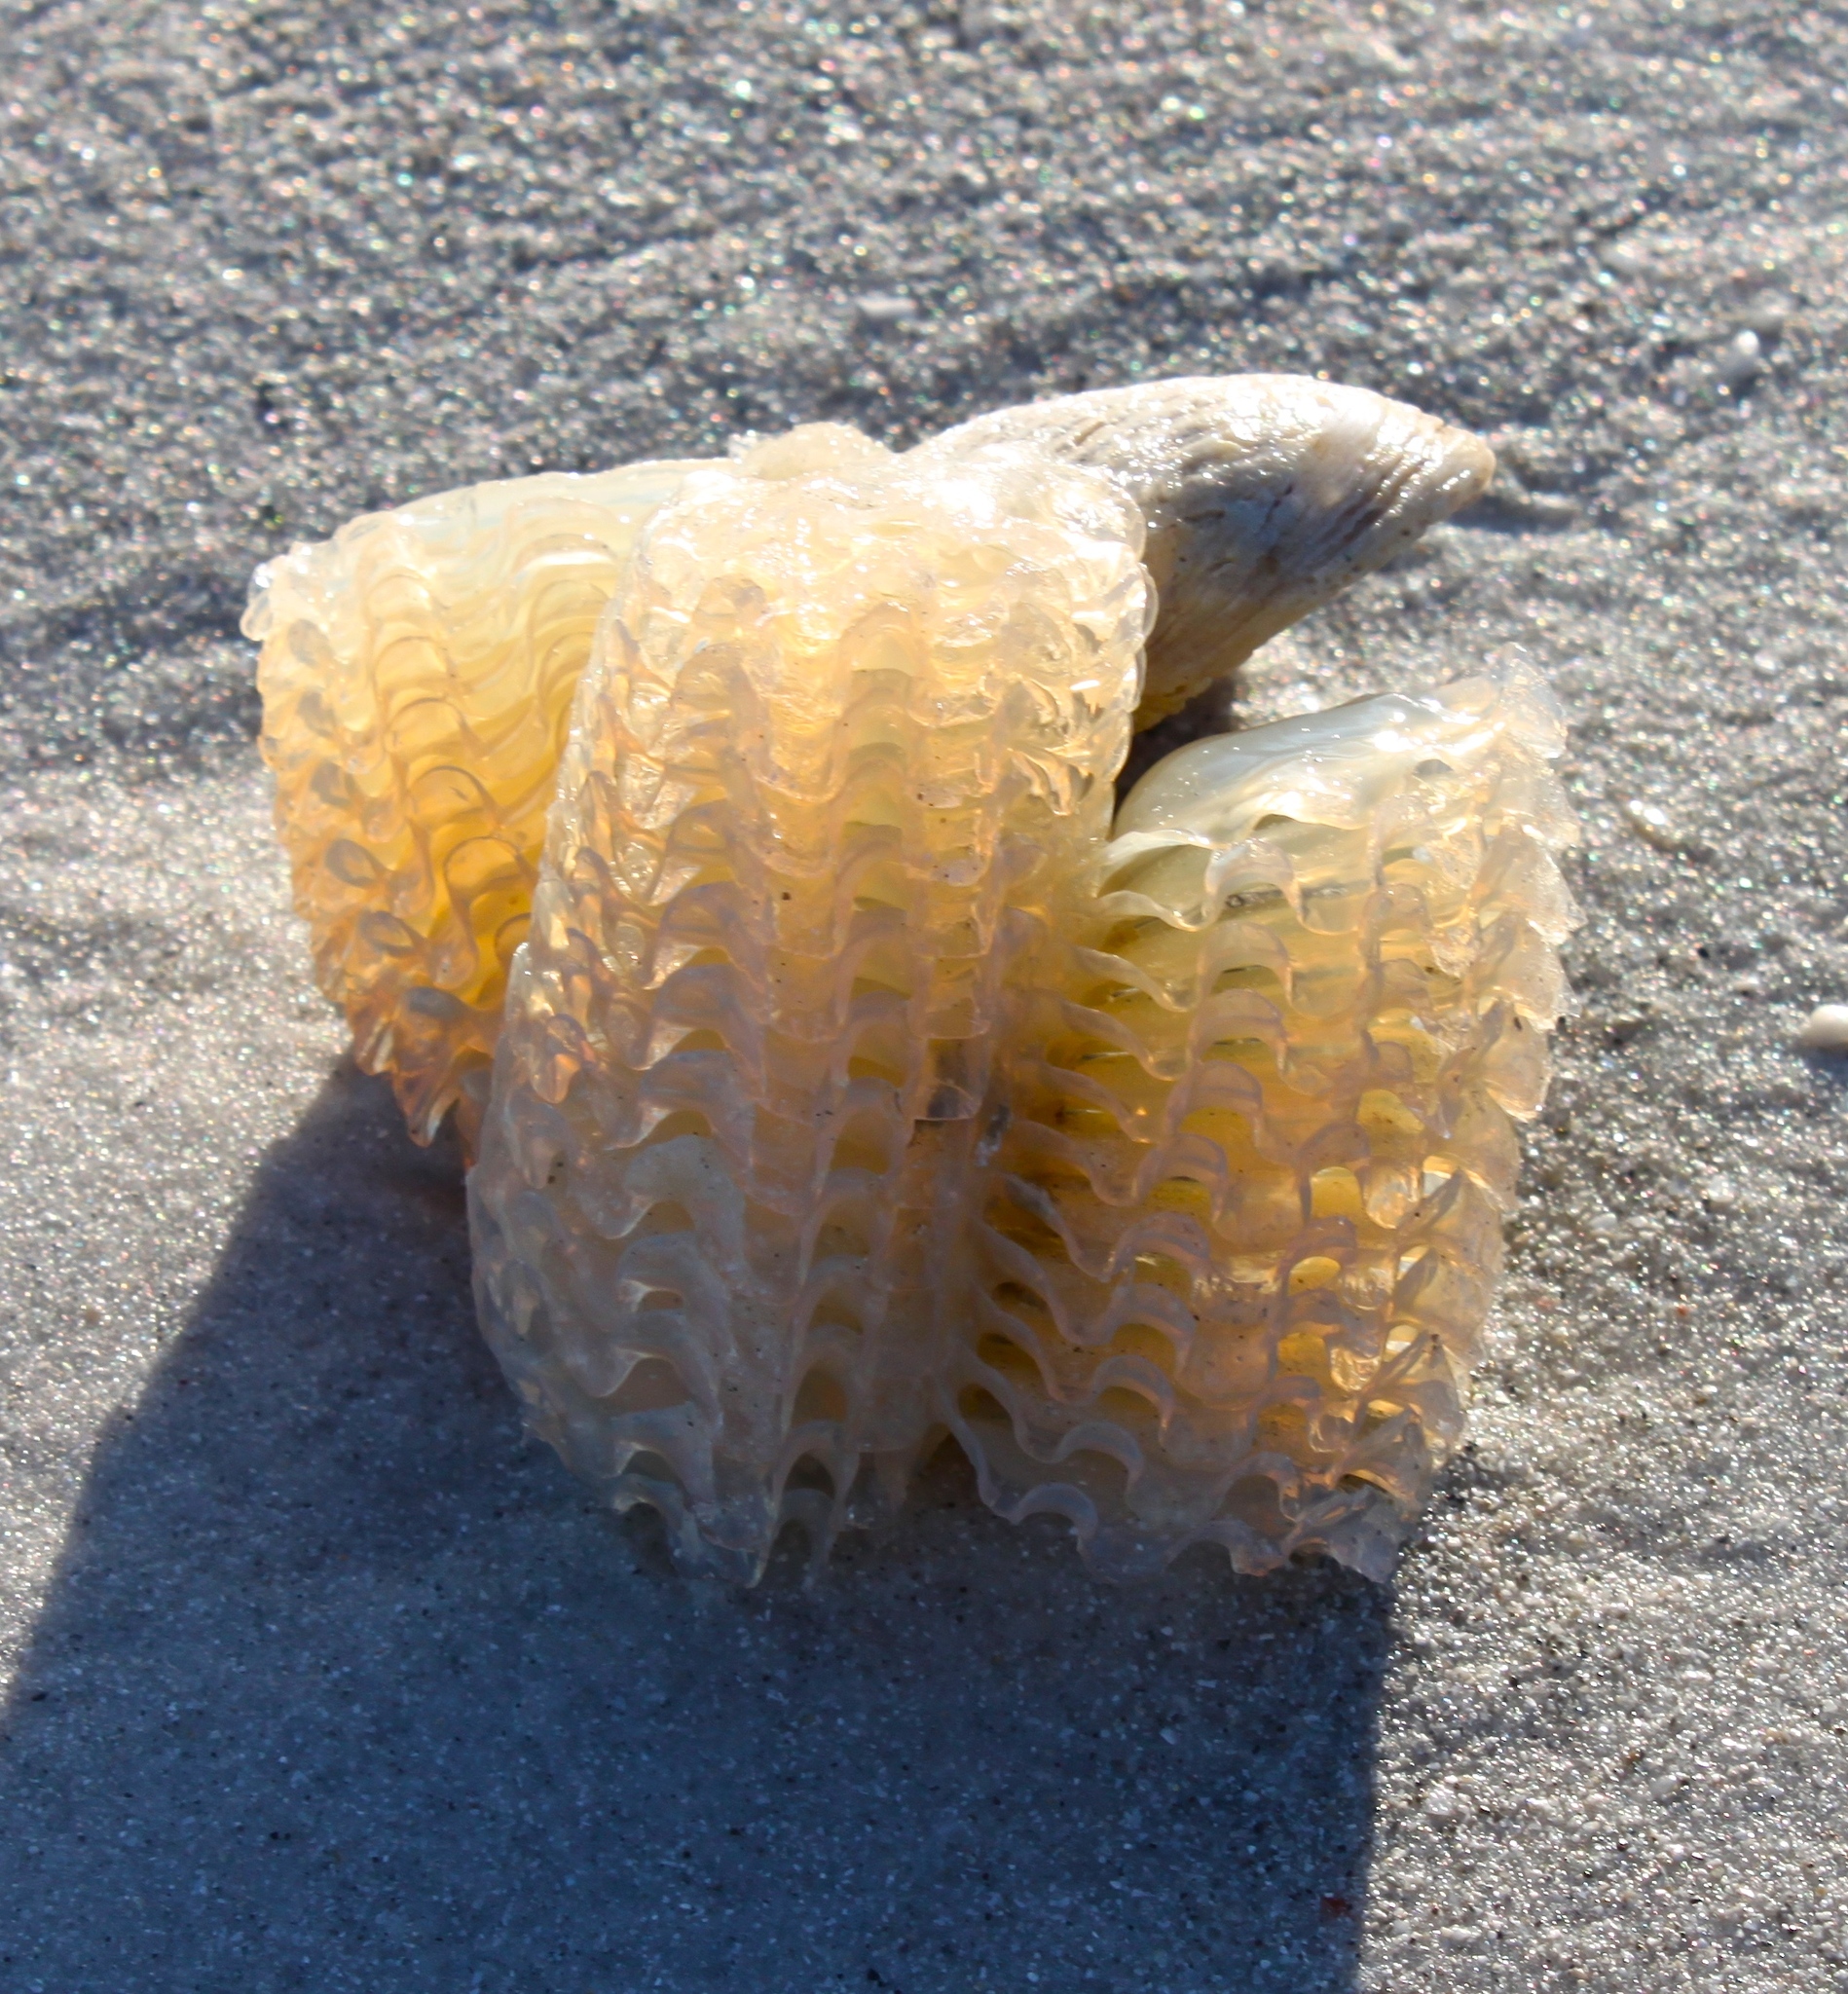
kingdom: Animalia
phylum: Mollusca
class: Gastropoda
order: Littorinimorpha
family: Ficidae
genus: Ficus
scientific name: Ficus papyratia
